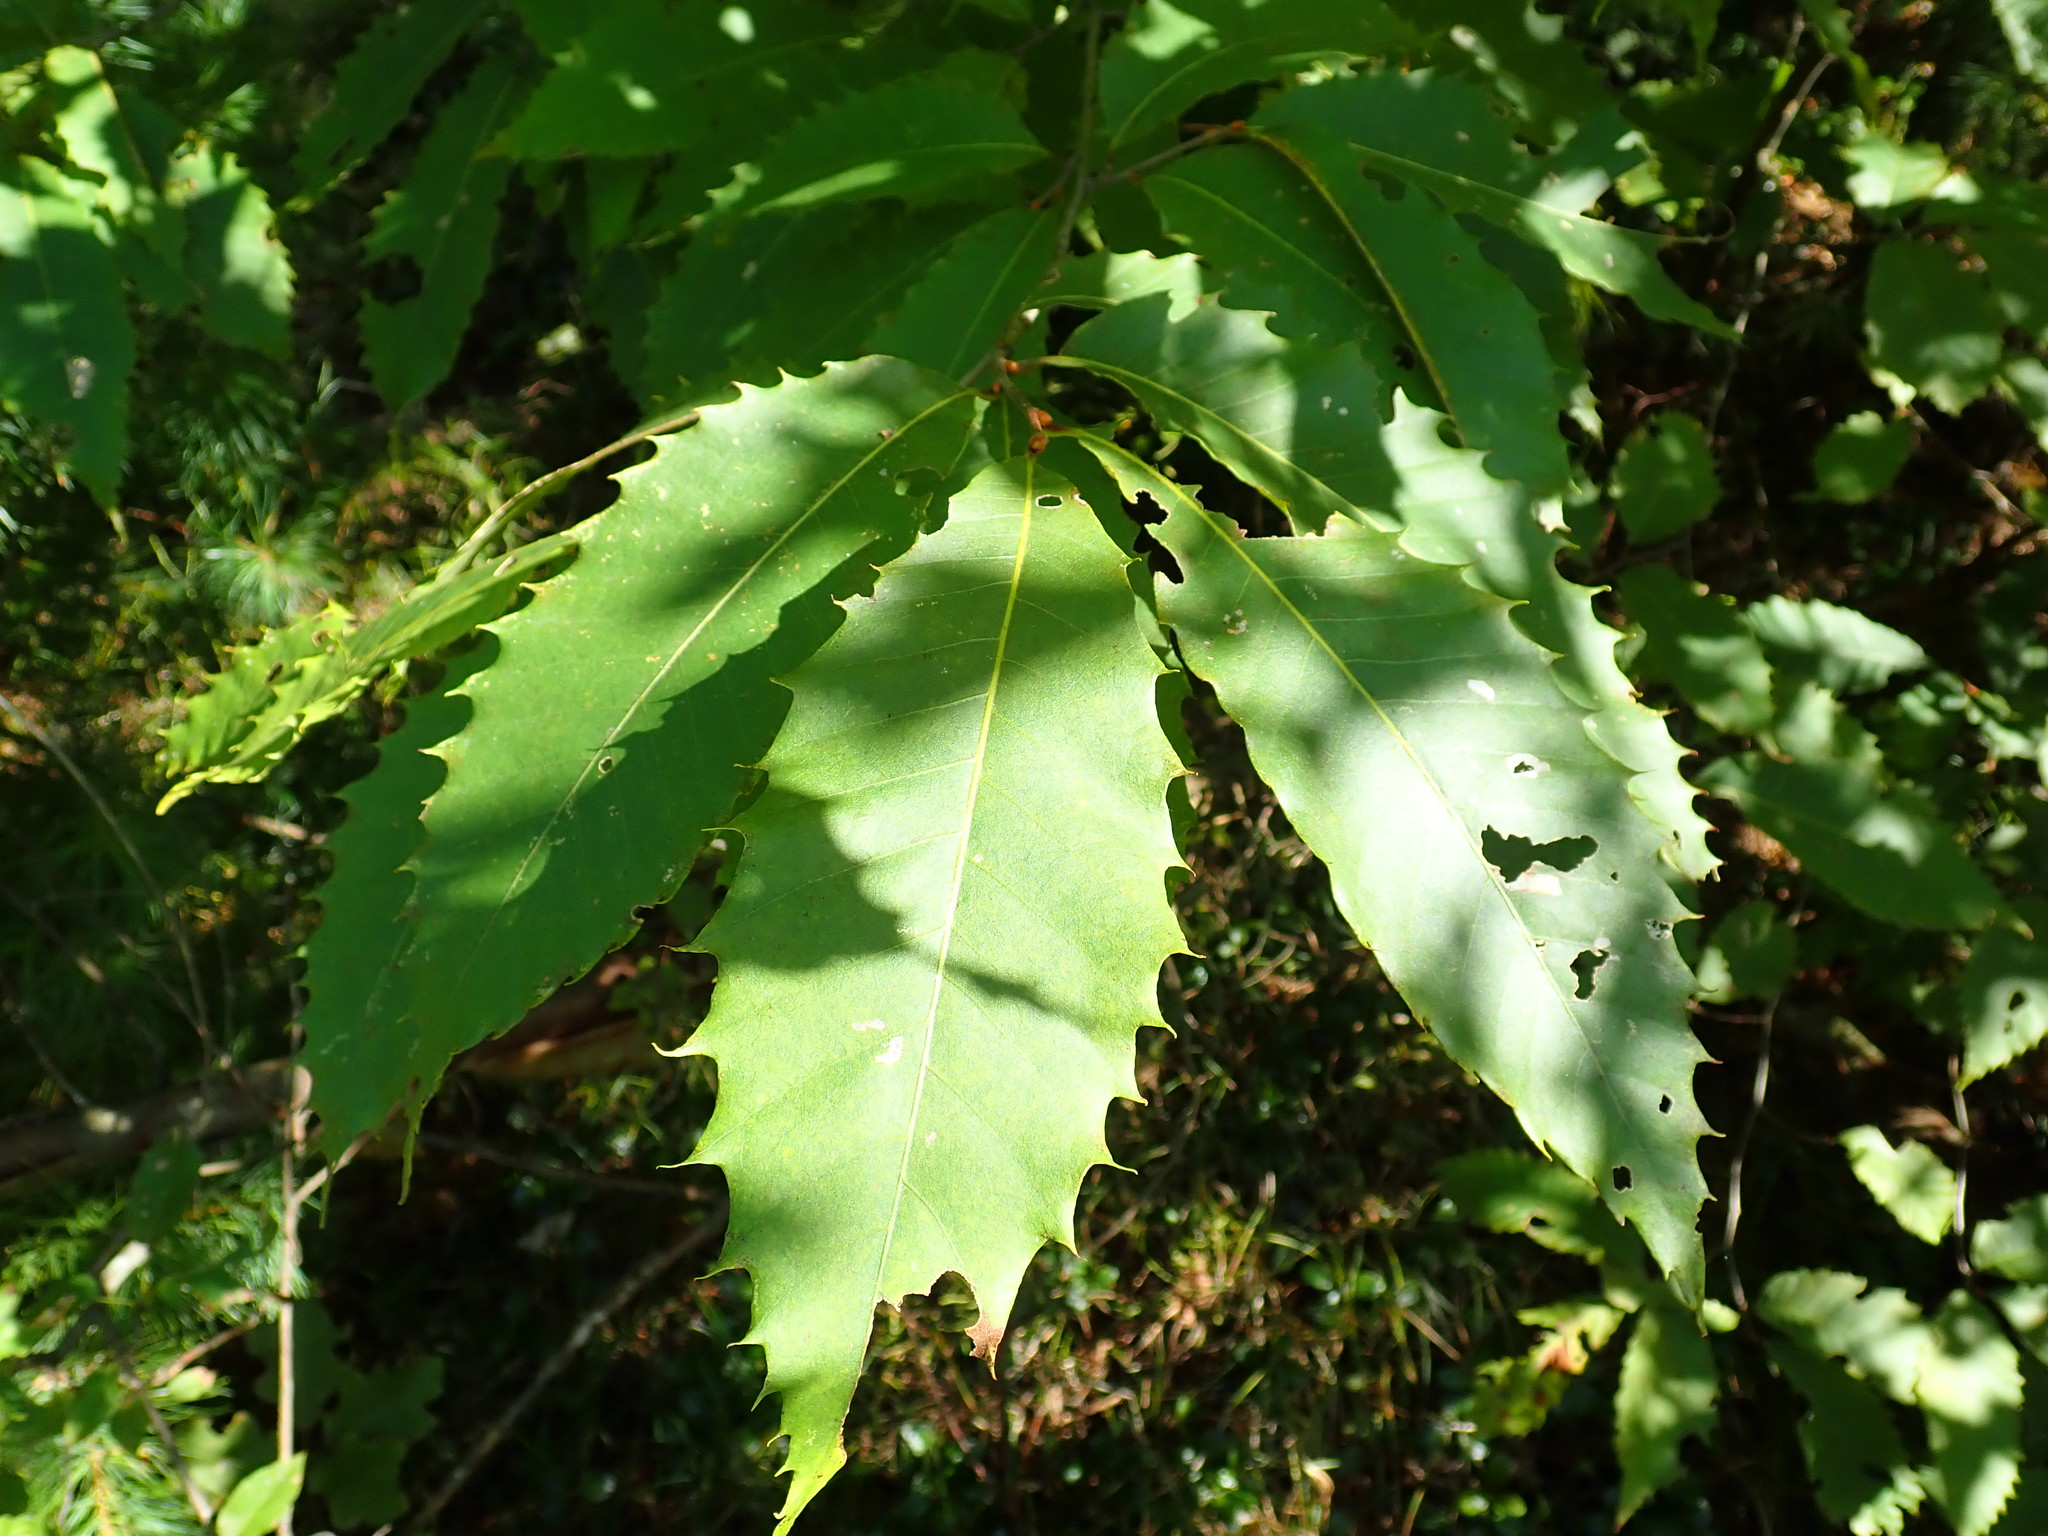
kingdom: Plantae
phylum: Tracheophyta
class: Magnoliopsida
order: Fagales
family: Fagaceae
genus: Castanea
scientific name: Castanea dentata
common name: American chestnut
